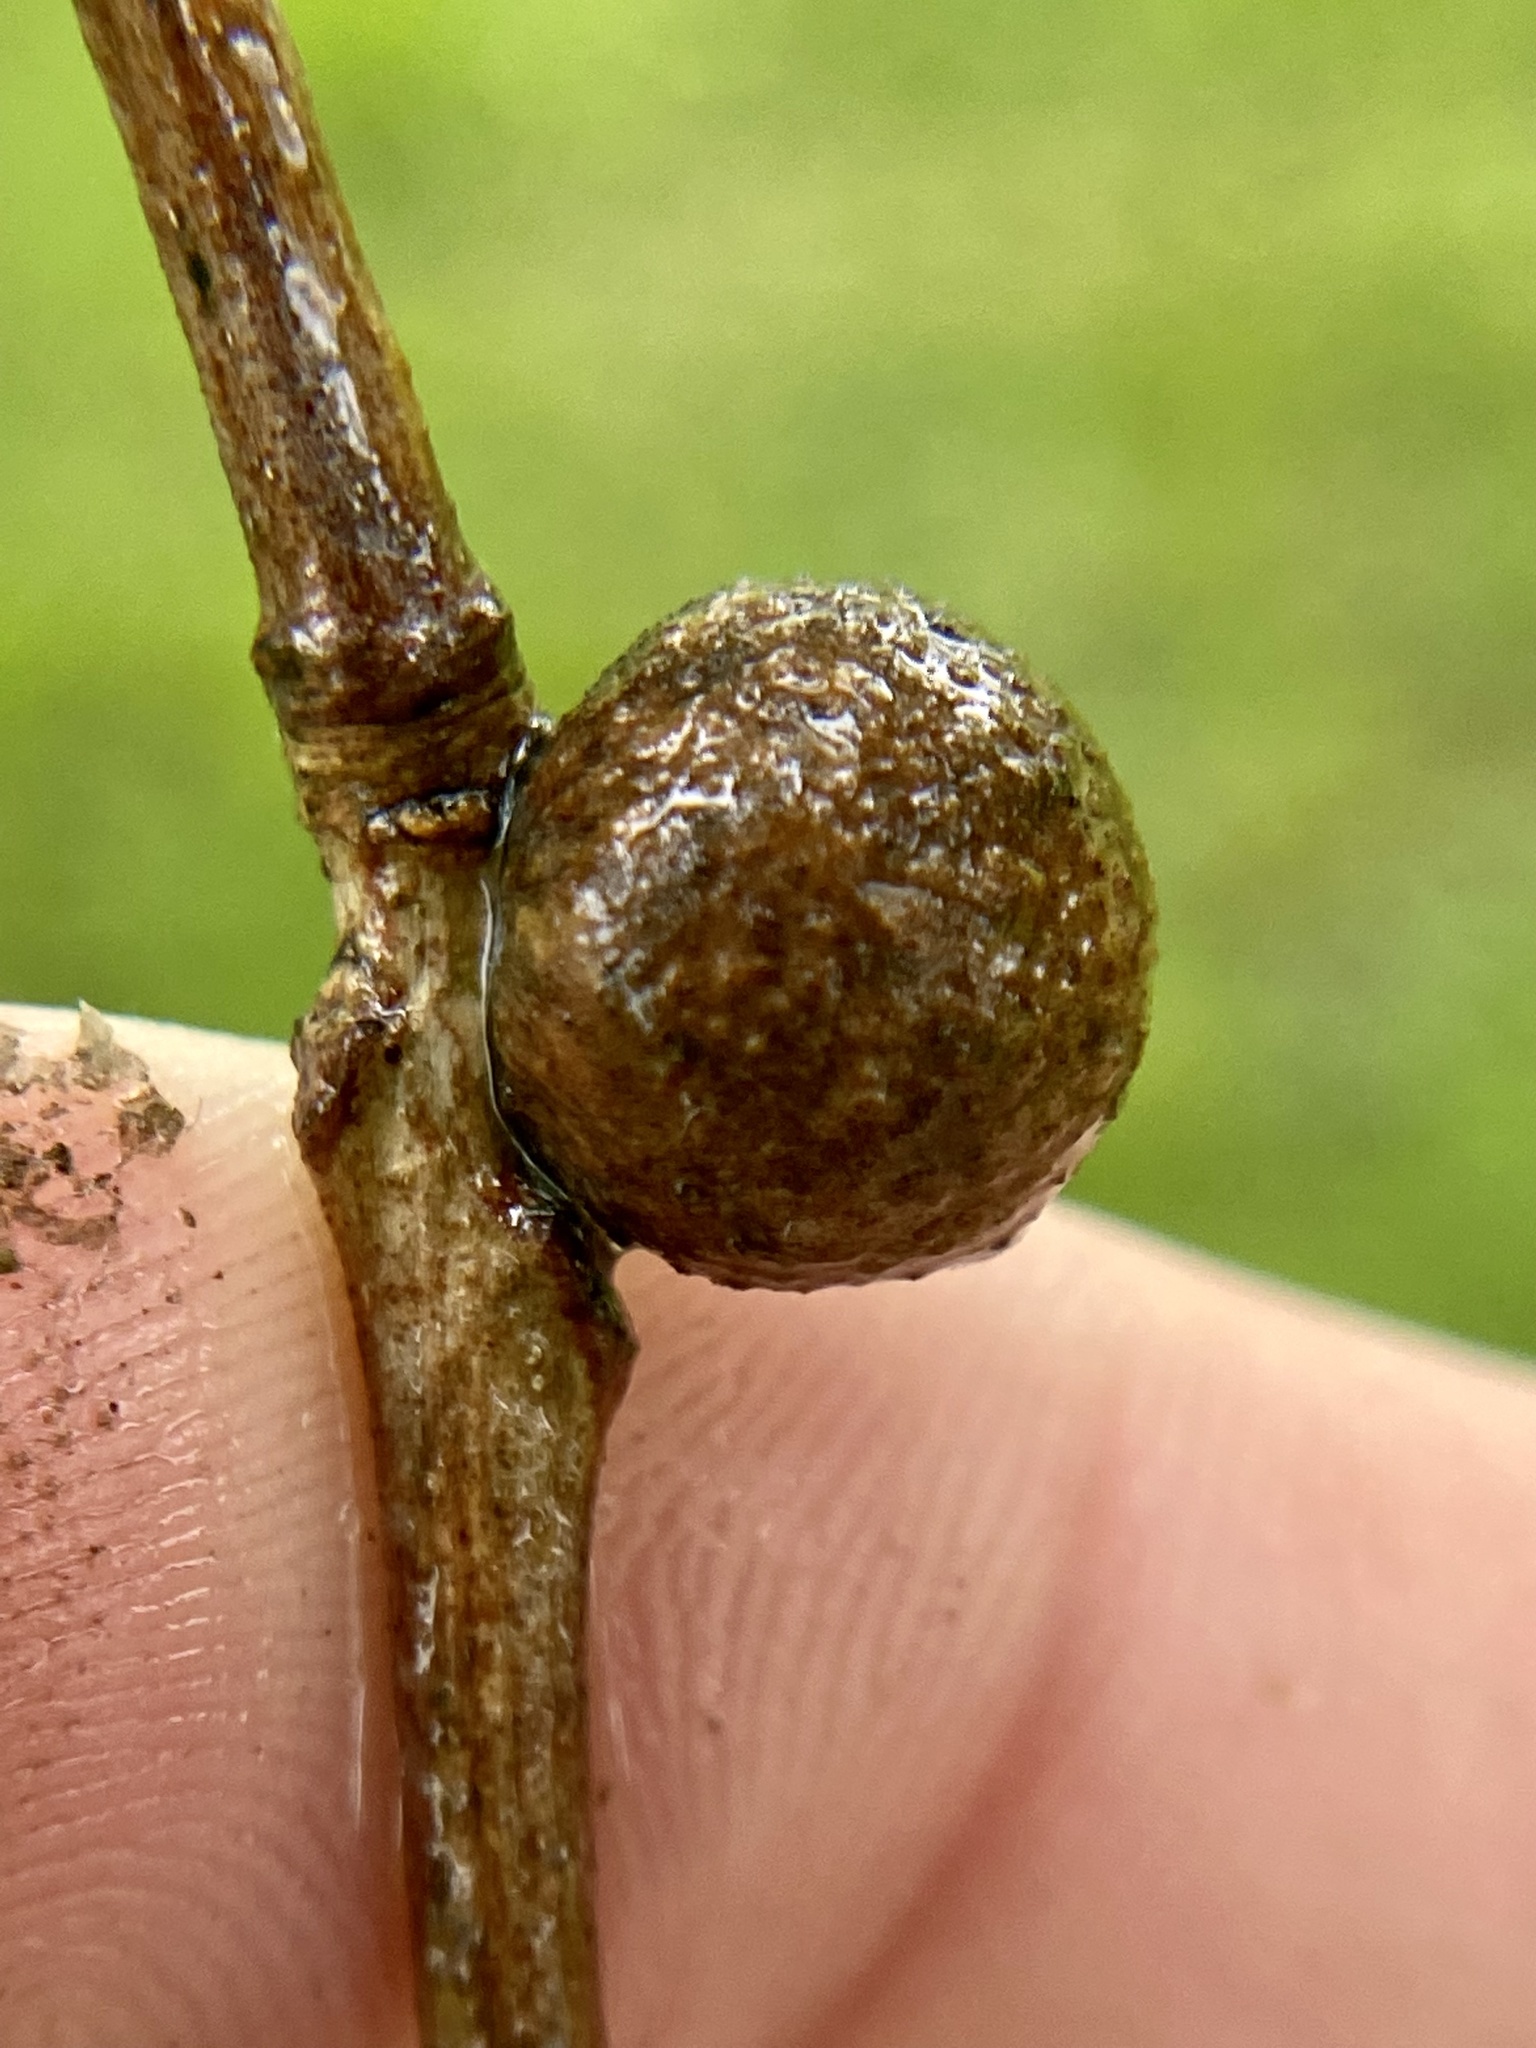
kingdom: Animalia
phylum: Arthropoda
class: Insecta
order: Hymenoptera
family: Cynipidae
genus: Disholcaspis
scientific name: Disholcaspis quercusglobulus
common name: Round bullet gall wasp
